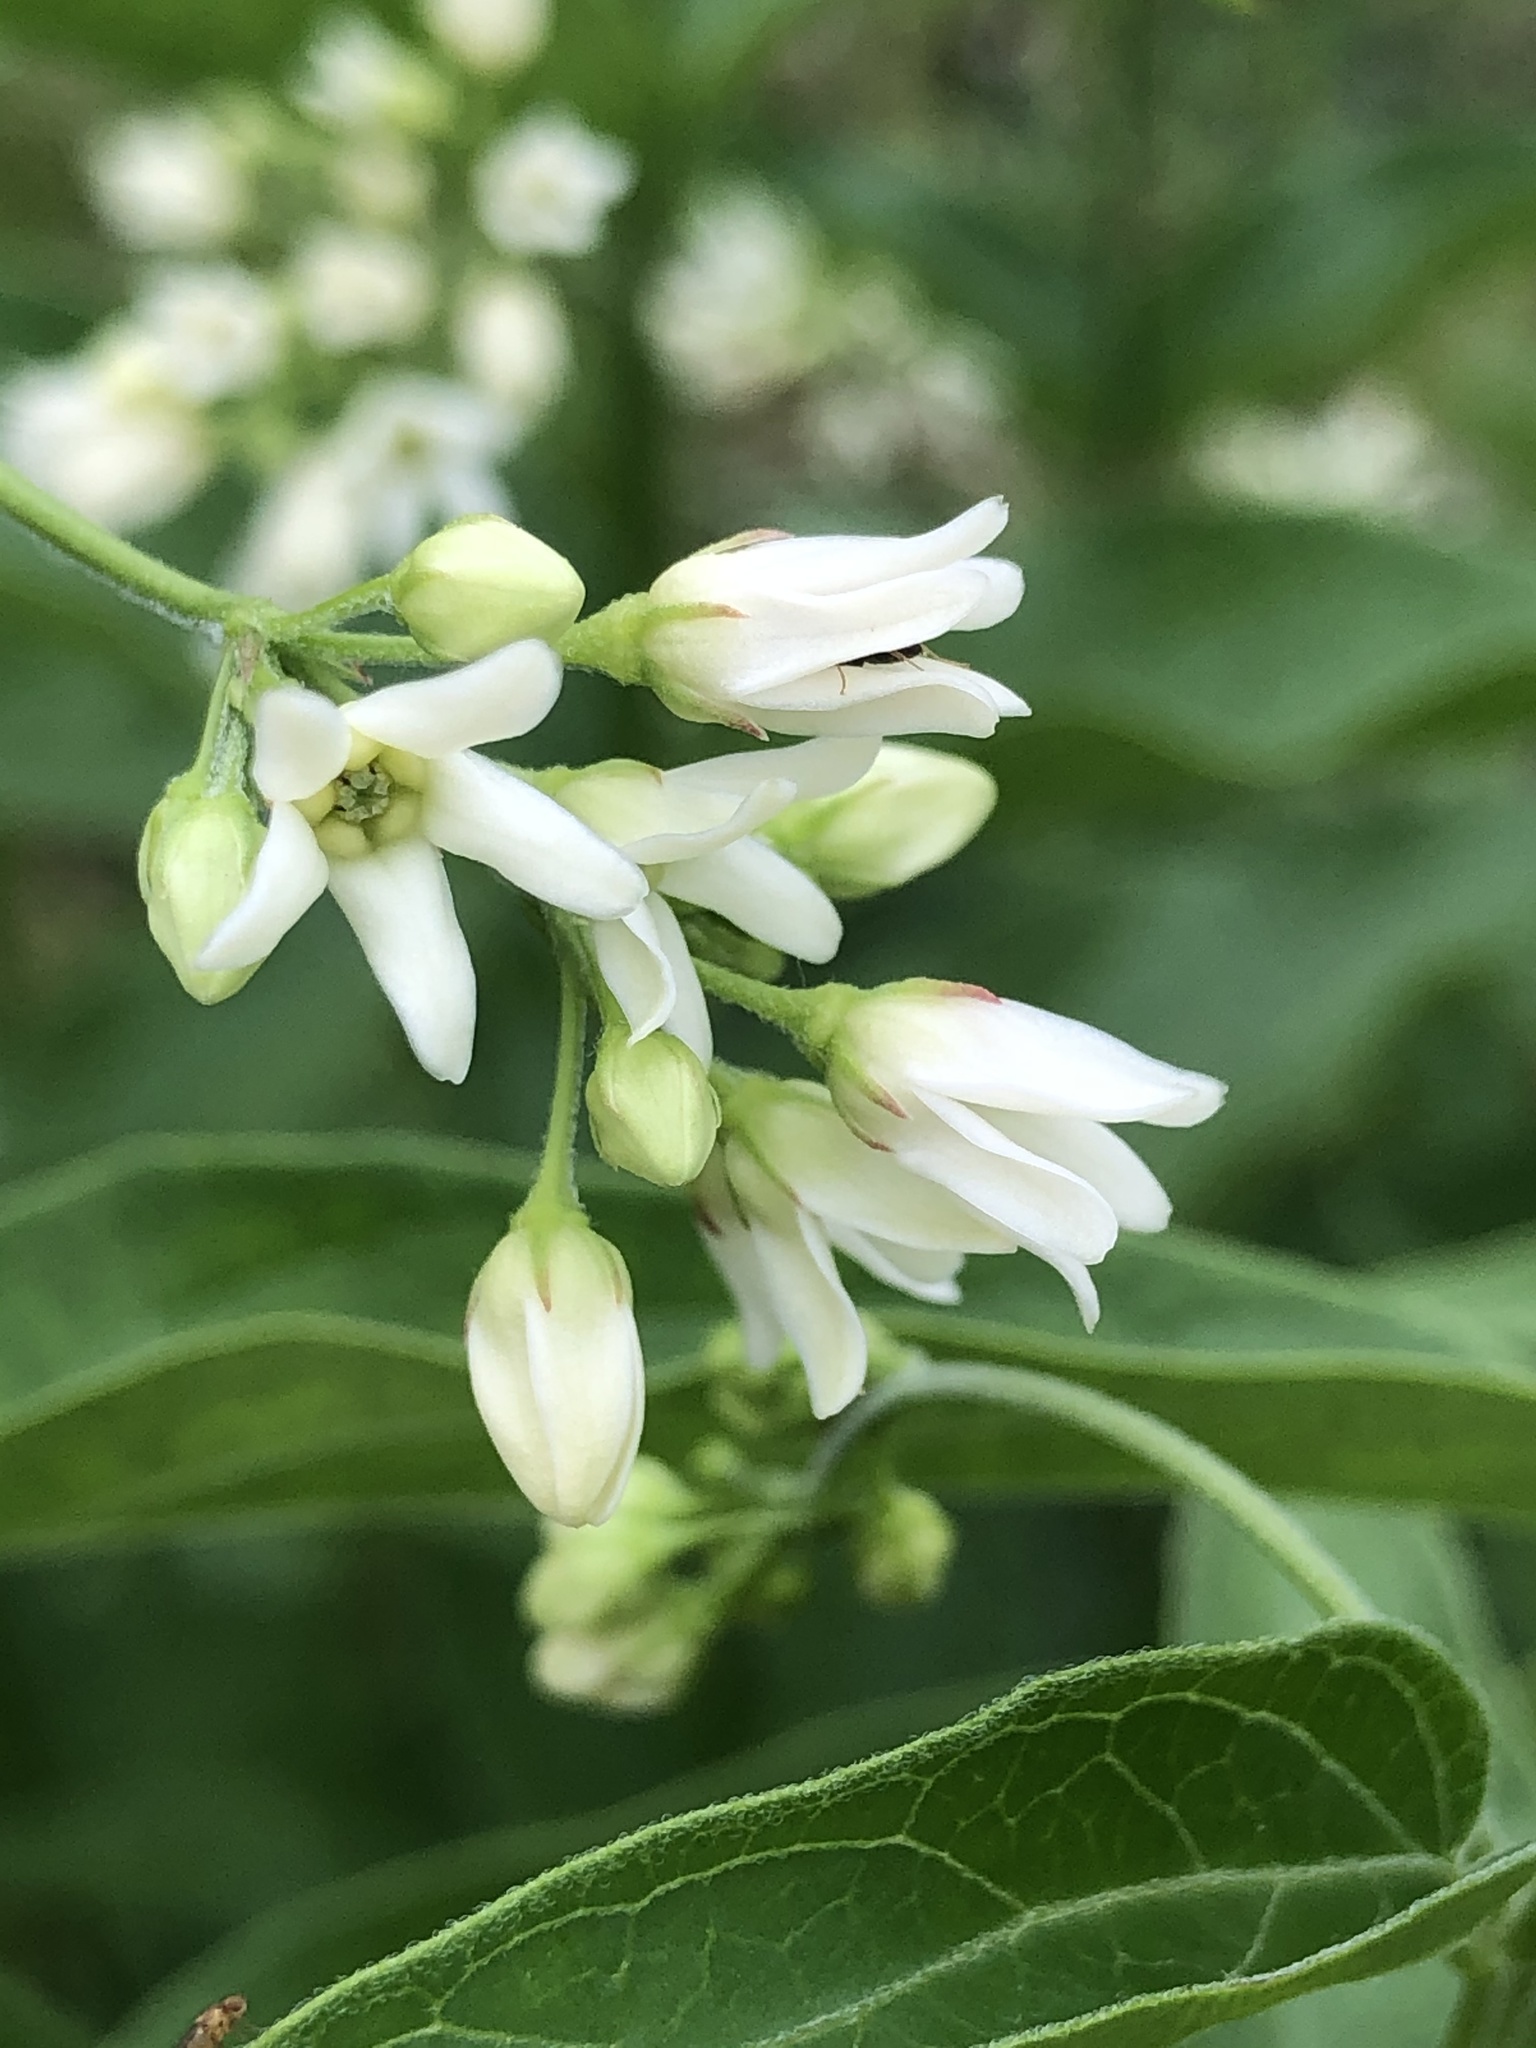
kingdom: Plantae
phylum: Tracheophyta
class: Magnoliopsida
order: Gentianales
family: Apocynaceae
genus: Vincetoxicum
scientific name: Vincetoxicum hirundinaria
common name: White swallowwort
